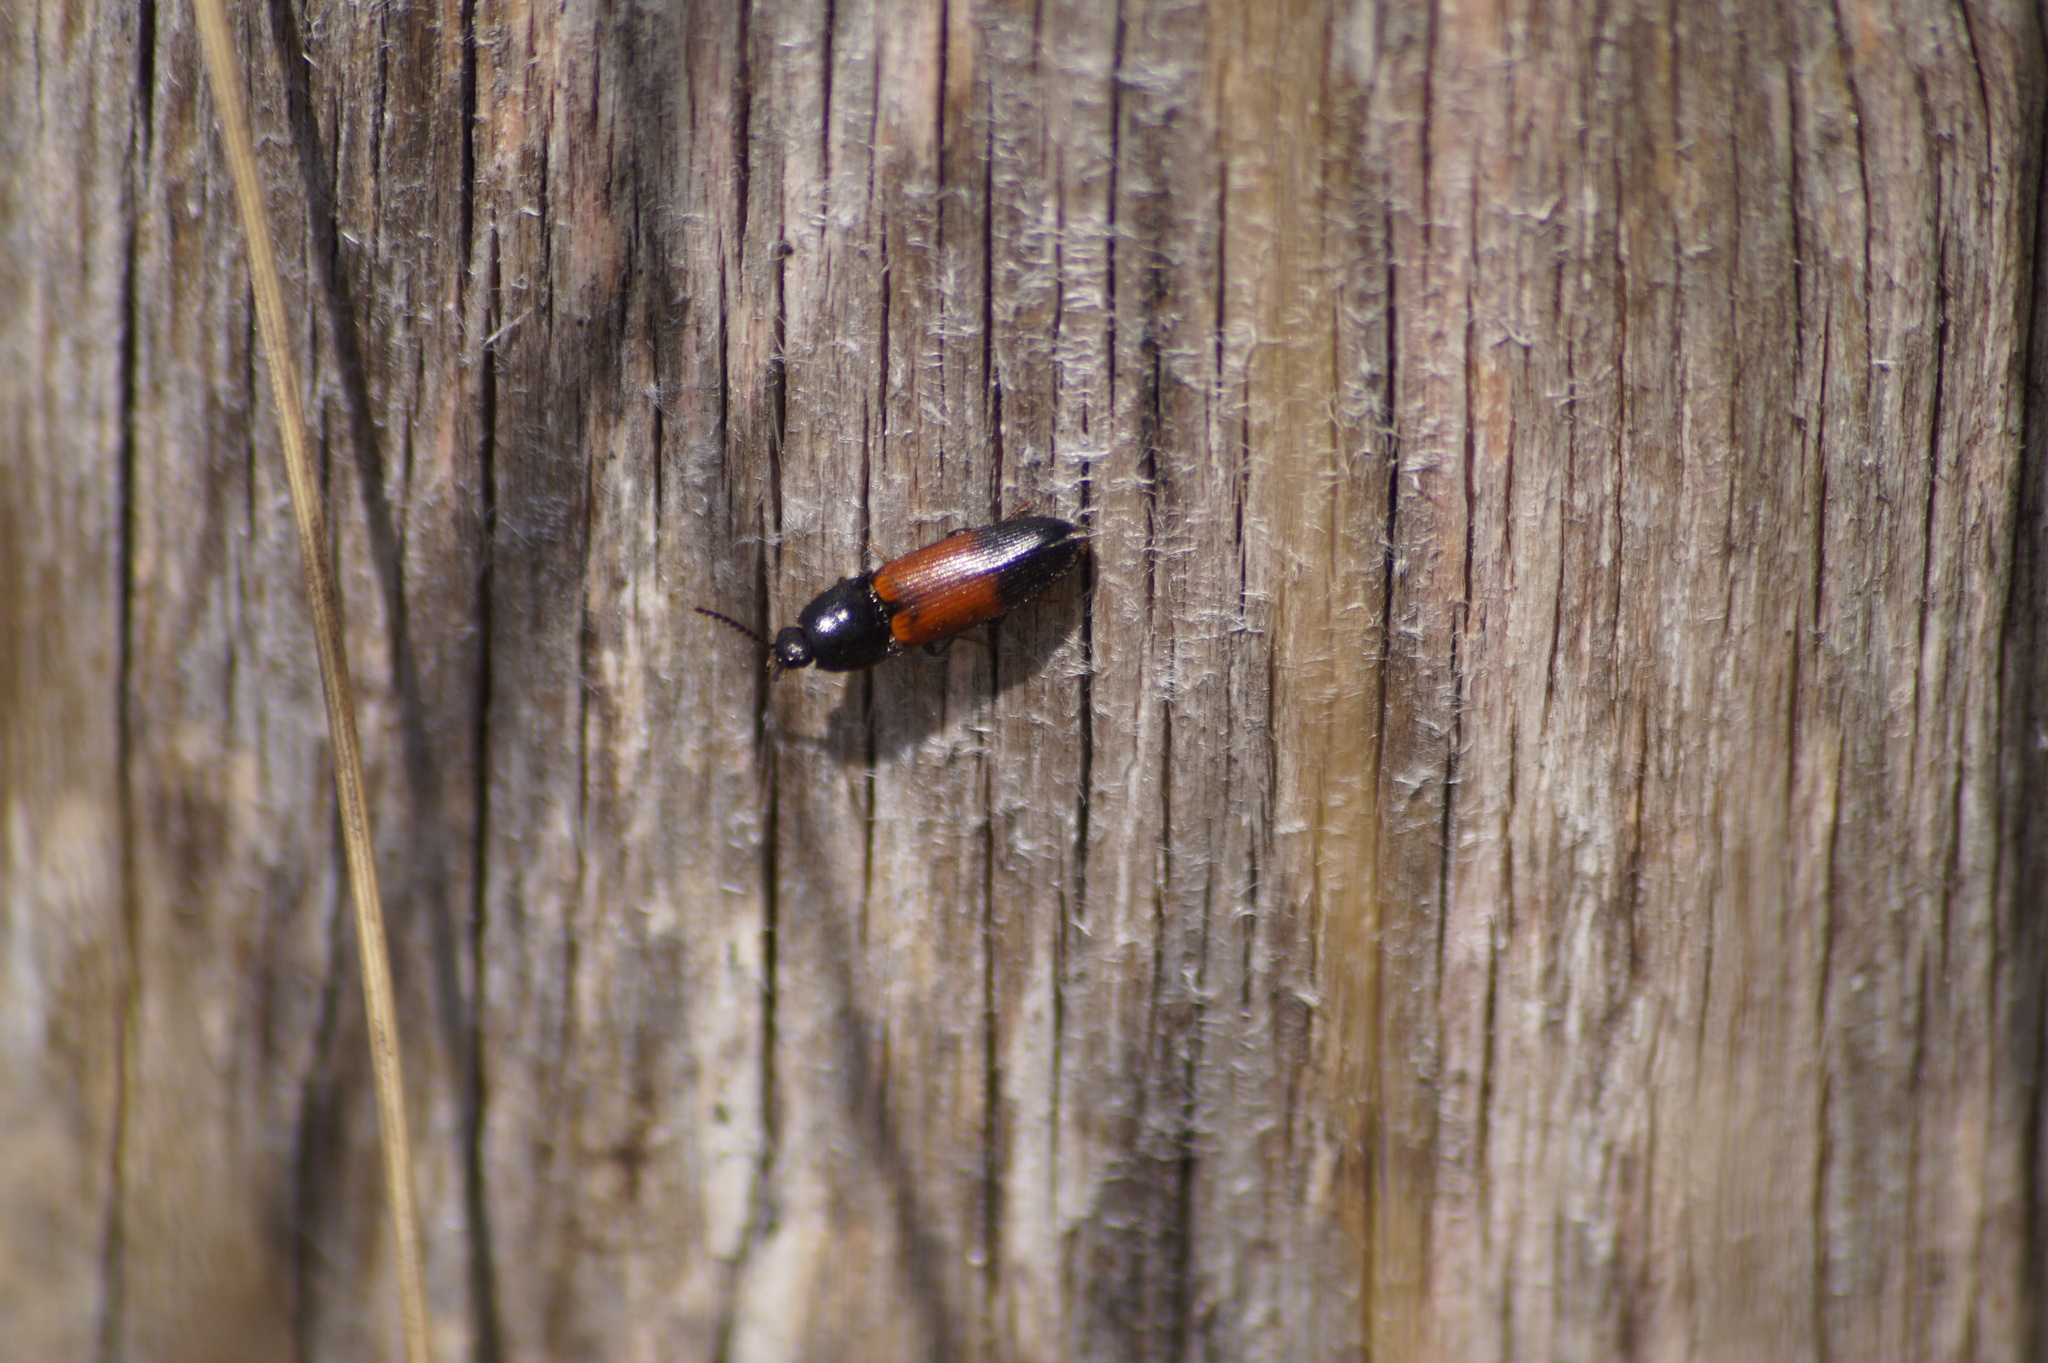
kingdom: Animalia
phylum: Arthropoda
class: Insecta
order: Coleoptera
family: Elateridae
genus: Ampedus
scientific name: Ampedus balteatus
